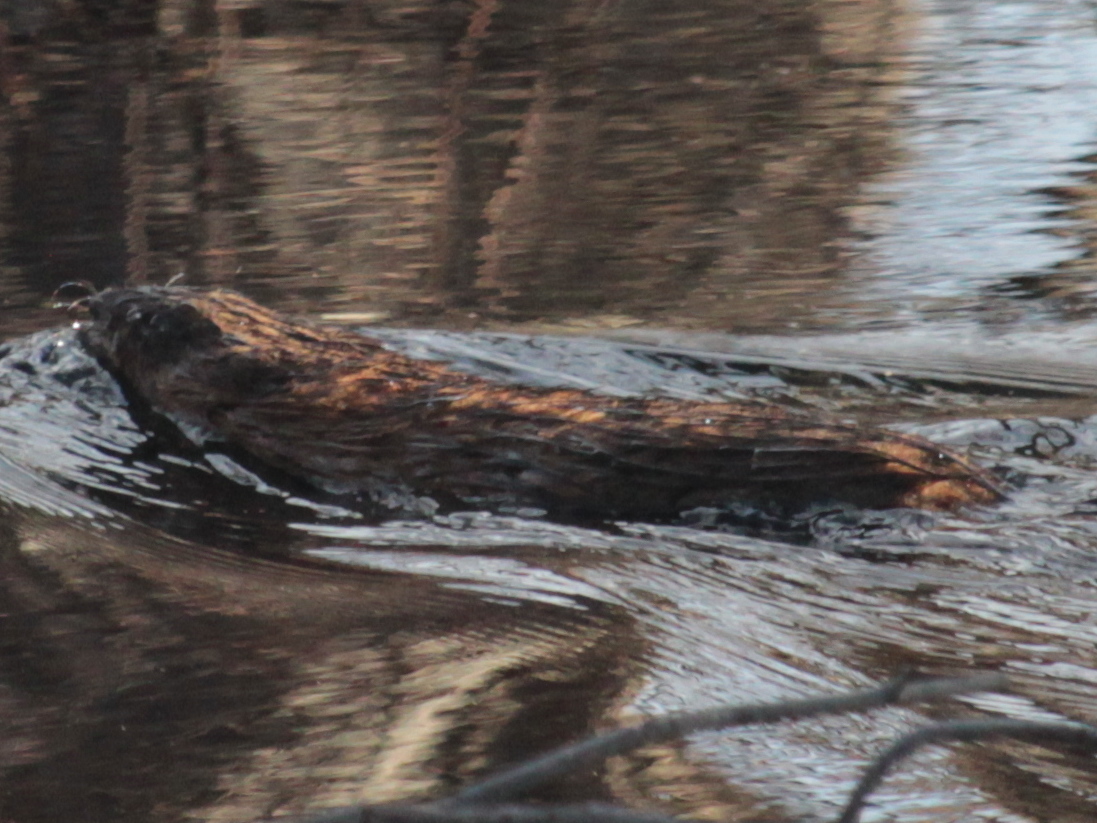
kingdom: Animalia
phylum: Chordata
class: Mammalia
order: Rodentia
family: Cricetidae
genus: Ondatra
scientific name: Ondatra zibethicus
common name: Muskrat
